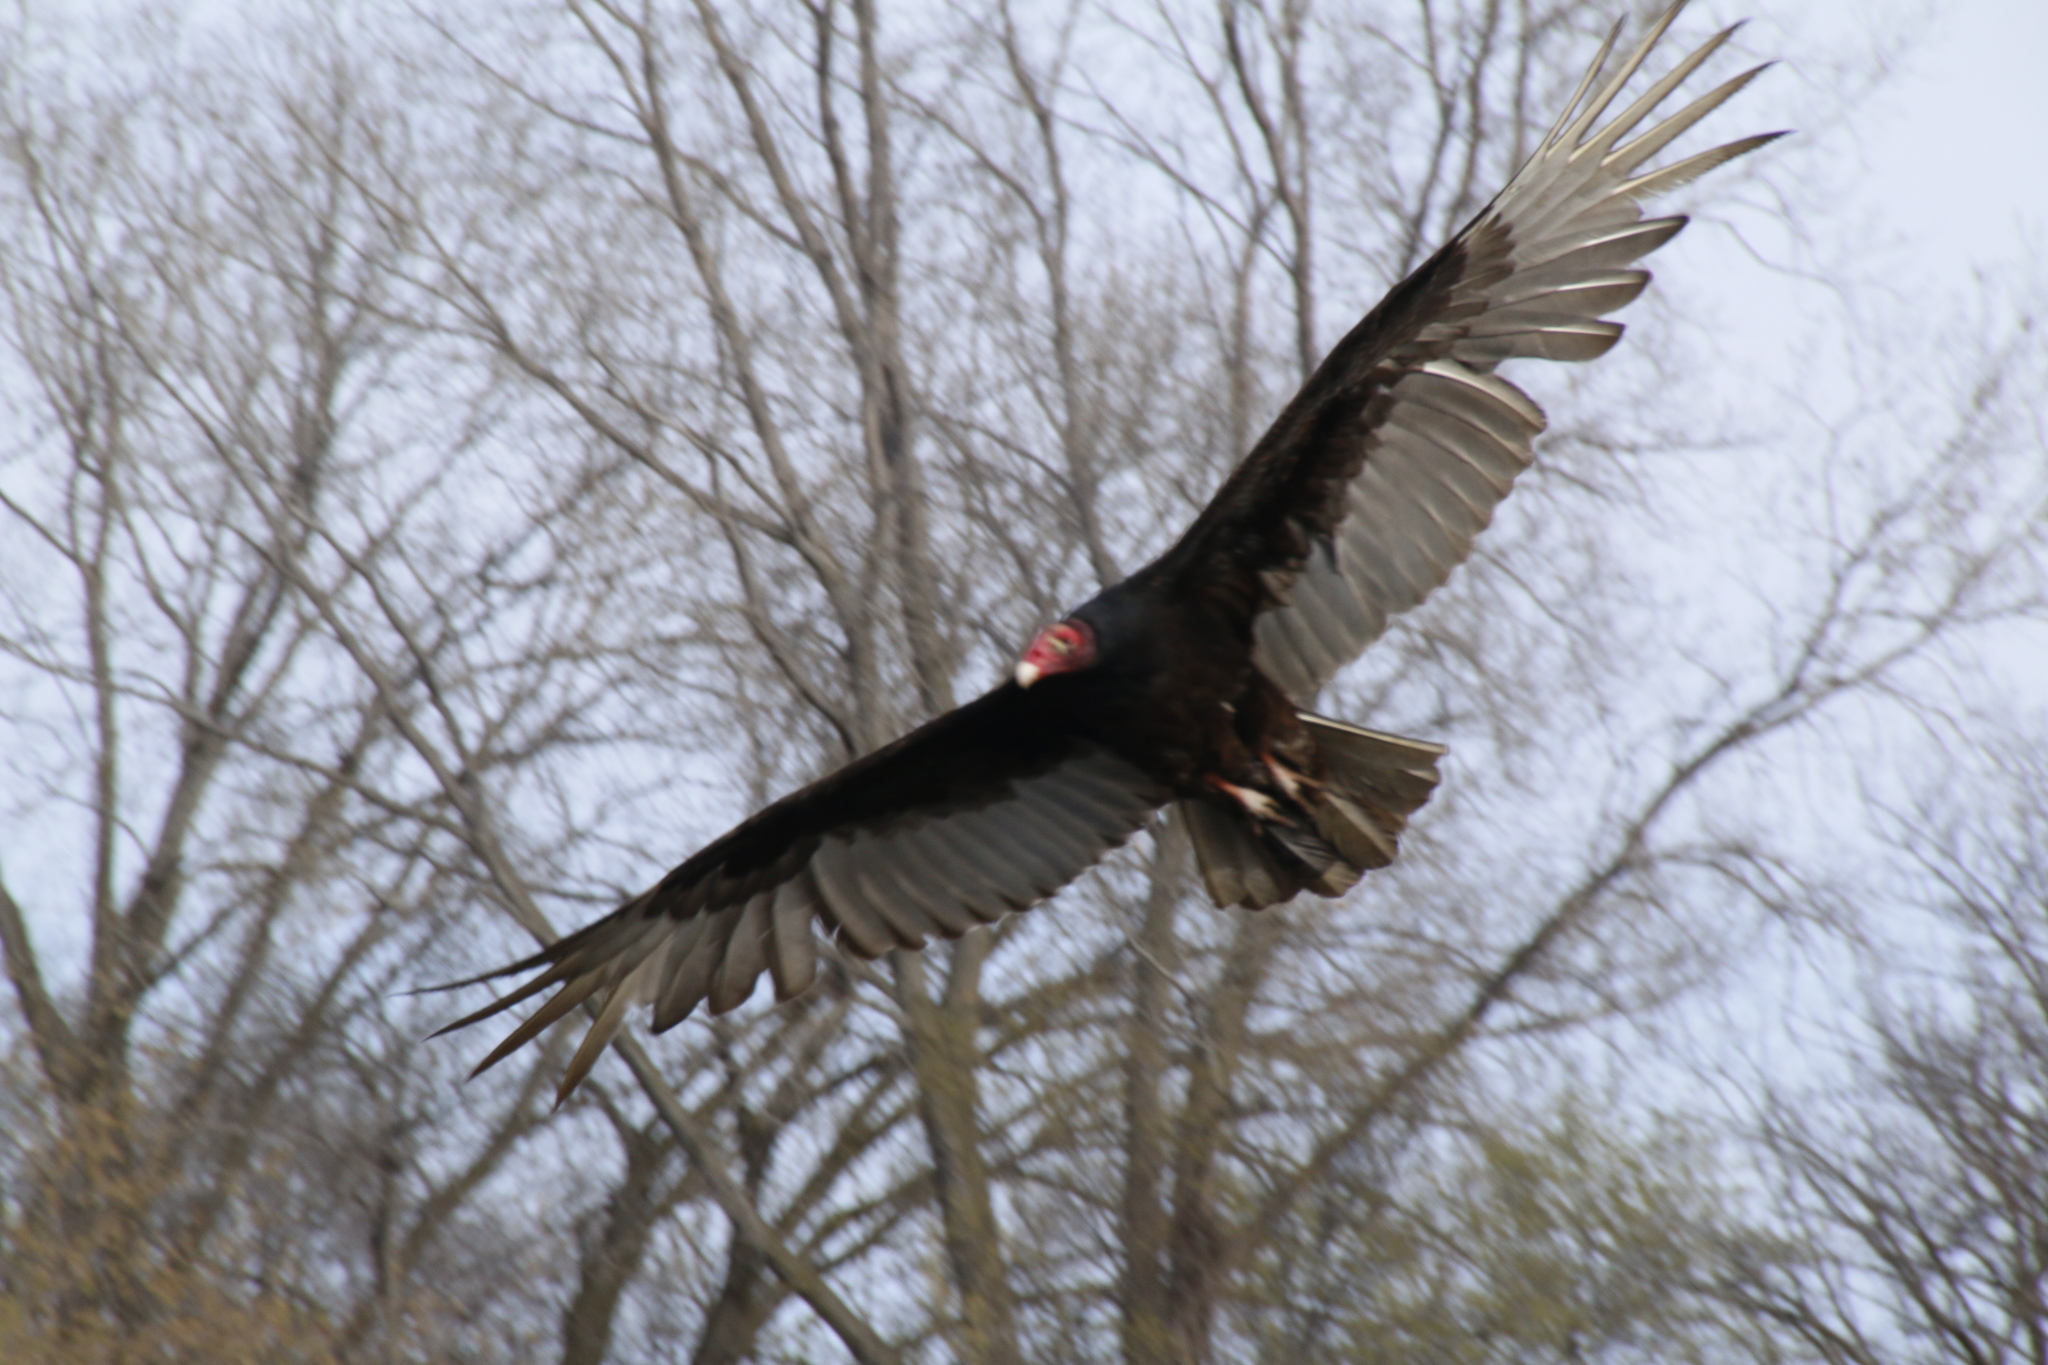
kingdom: Animalia
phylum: Chordata
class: Aves
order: Accipitriformes
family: Cathartidae
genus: Cathartes
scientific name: Cathartes aura
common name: Turkey vulture
